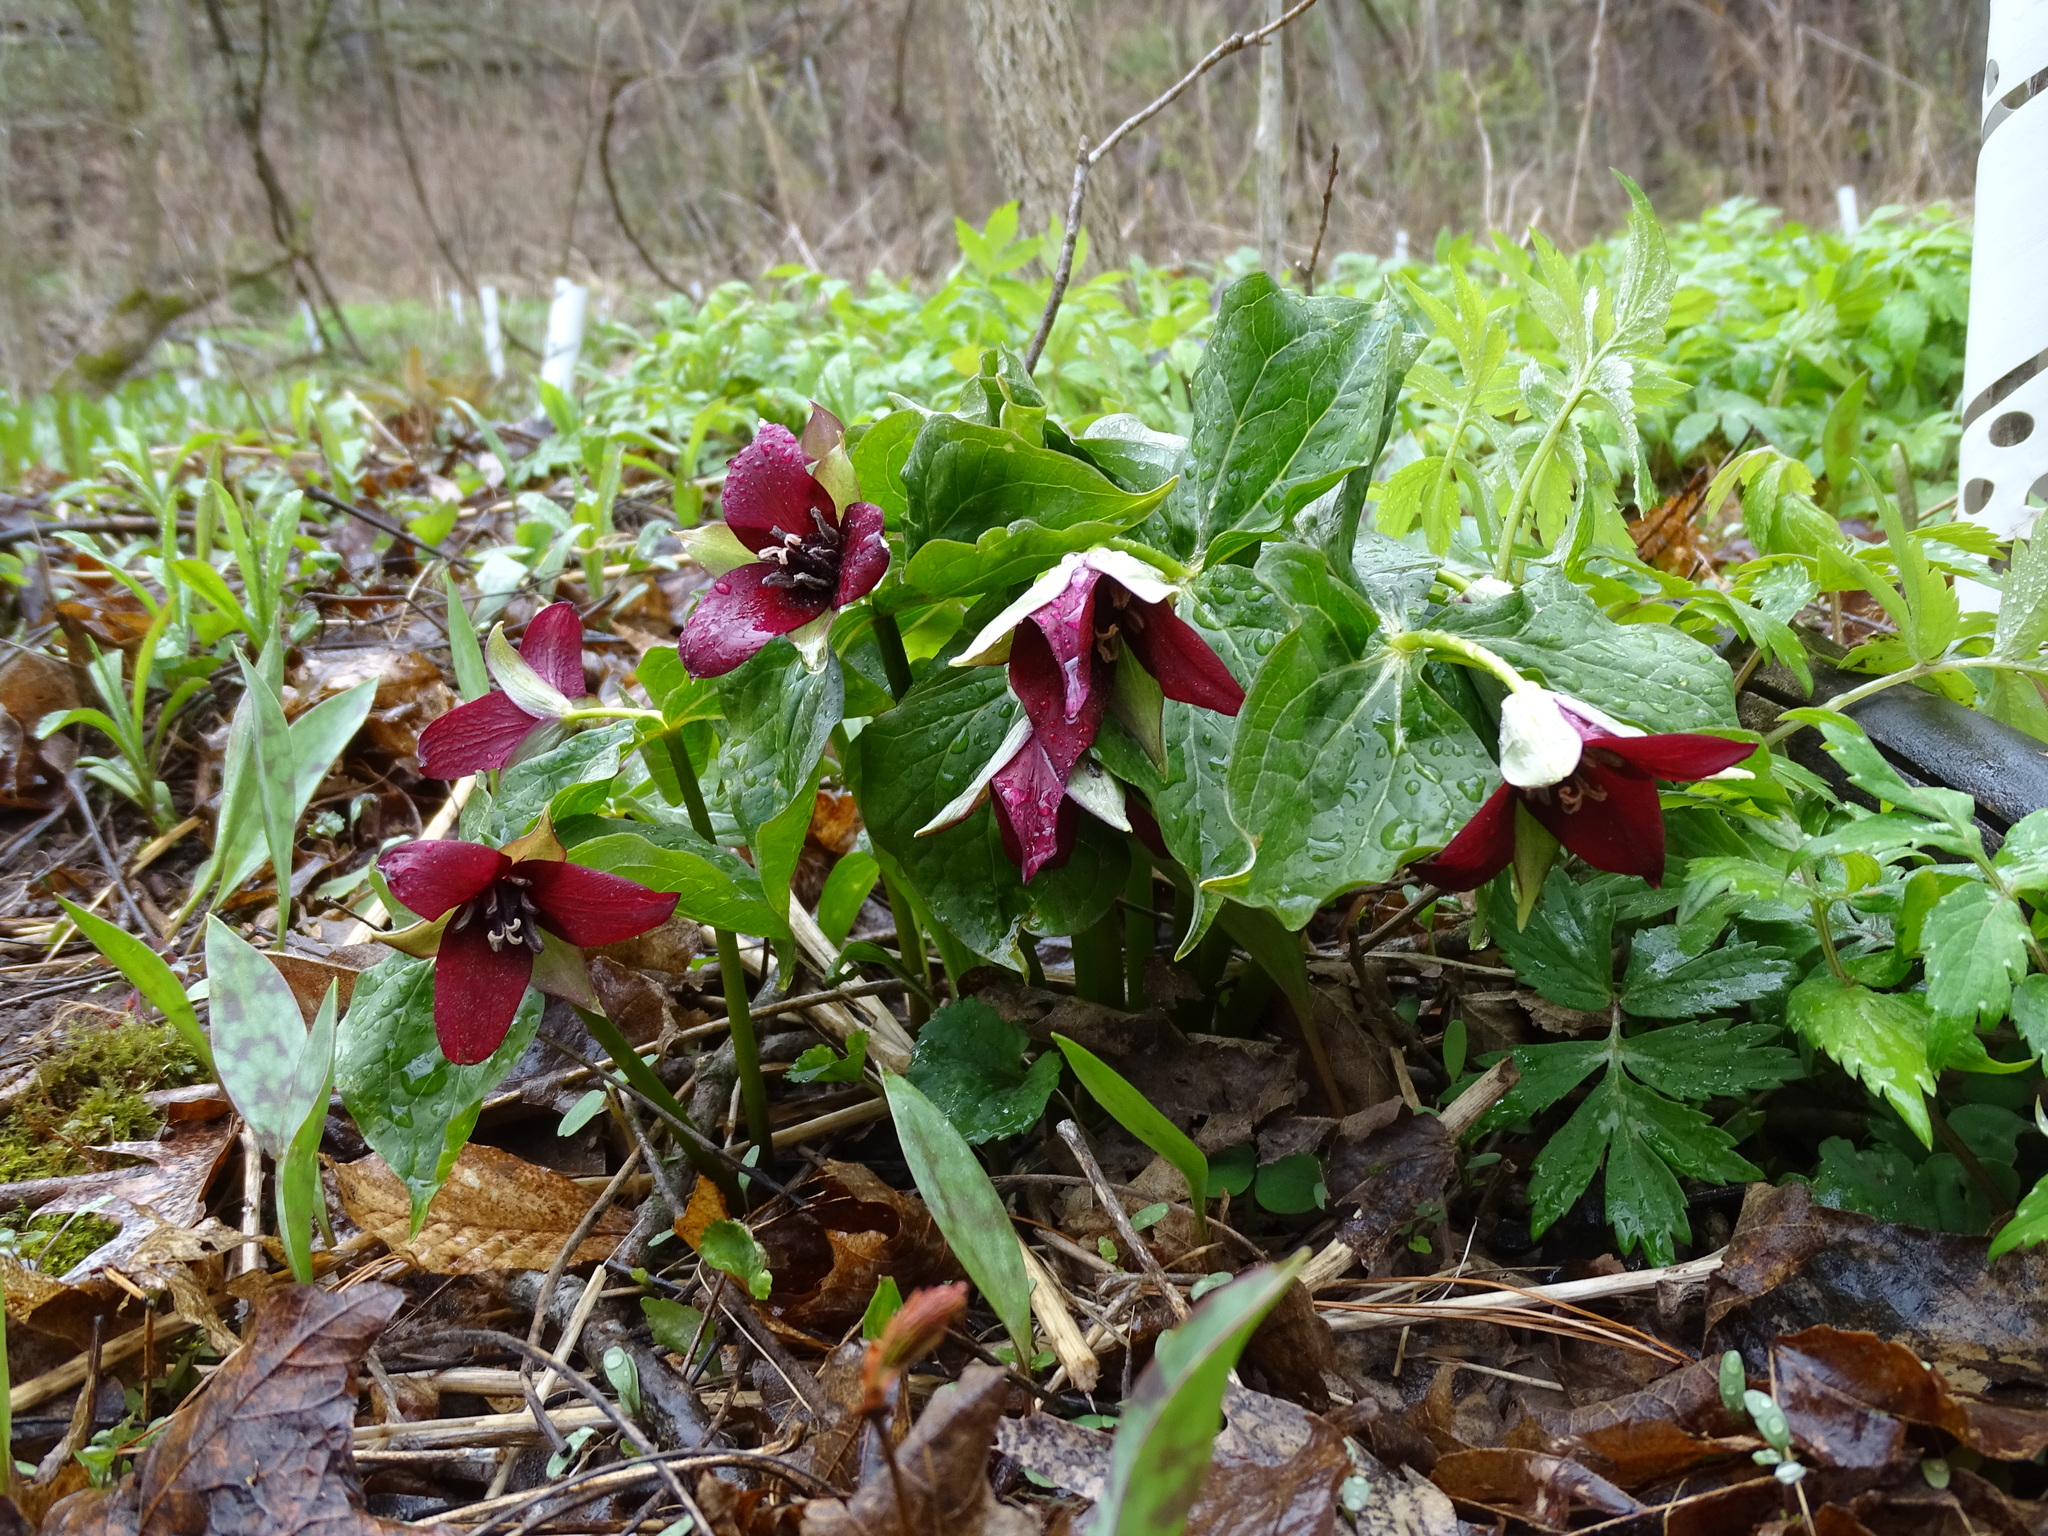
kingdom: Plantae
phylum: Tracheophyta
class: Liliopsida
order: Liliales
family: Melanthiaceae
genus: Trillium
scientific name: Trillium erectum
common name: Purple trillium
